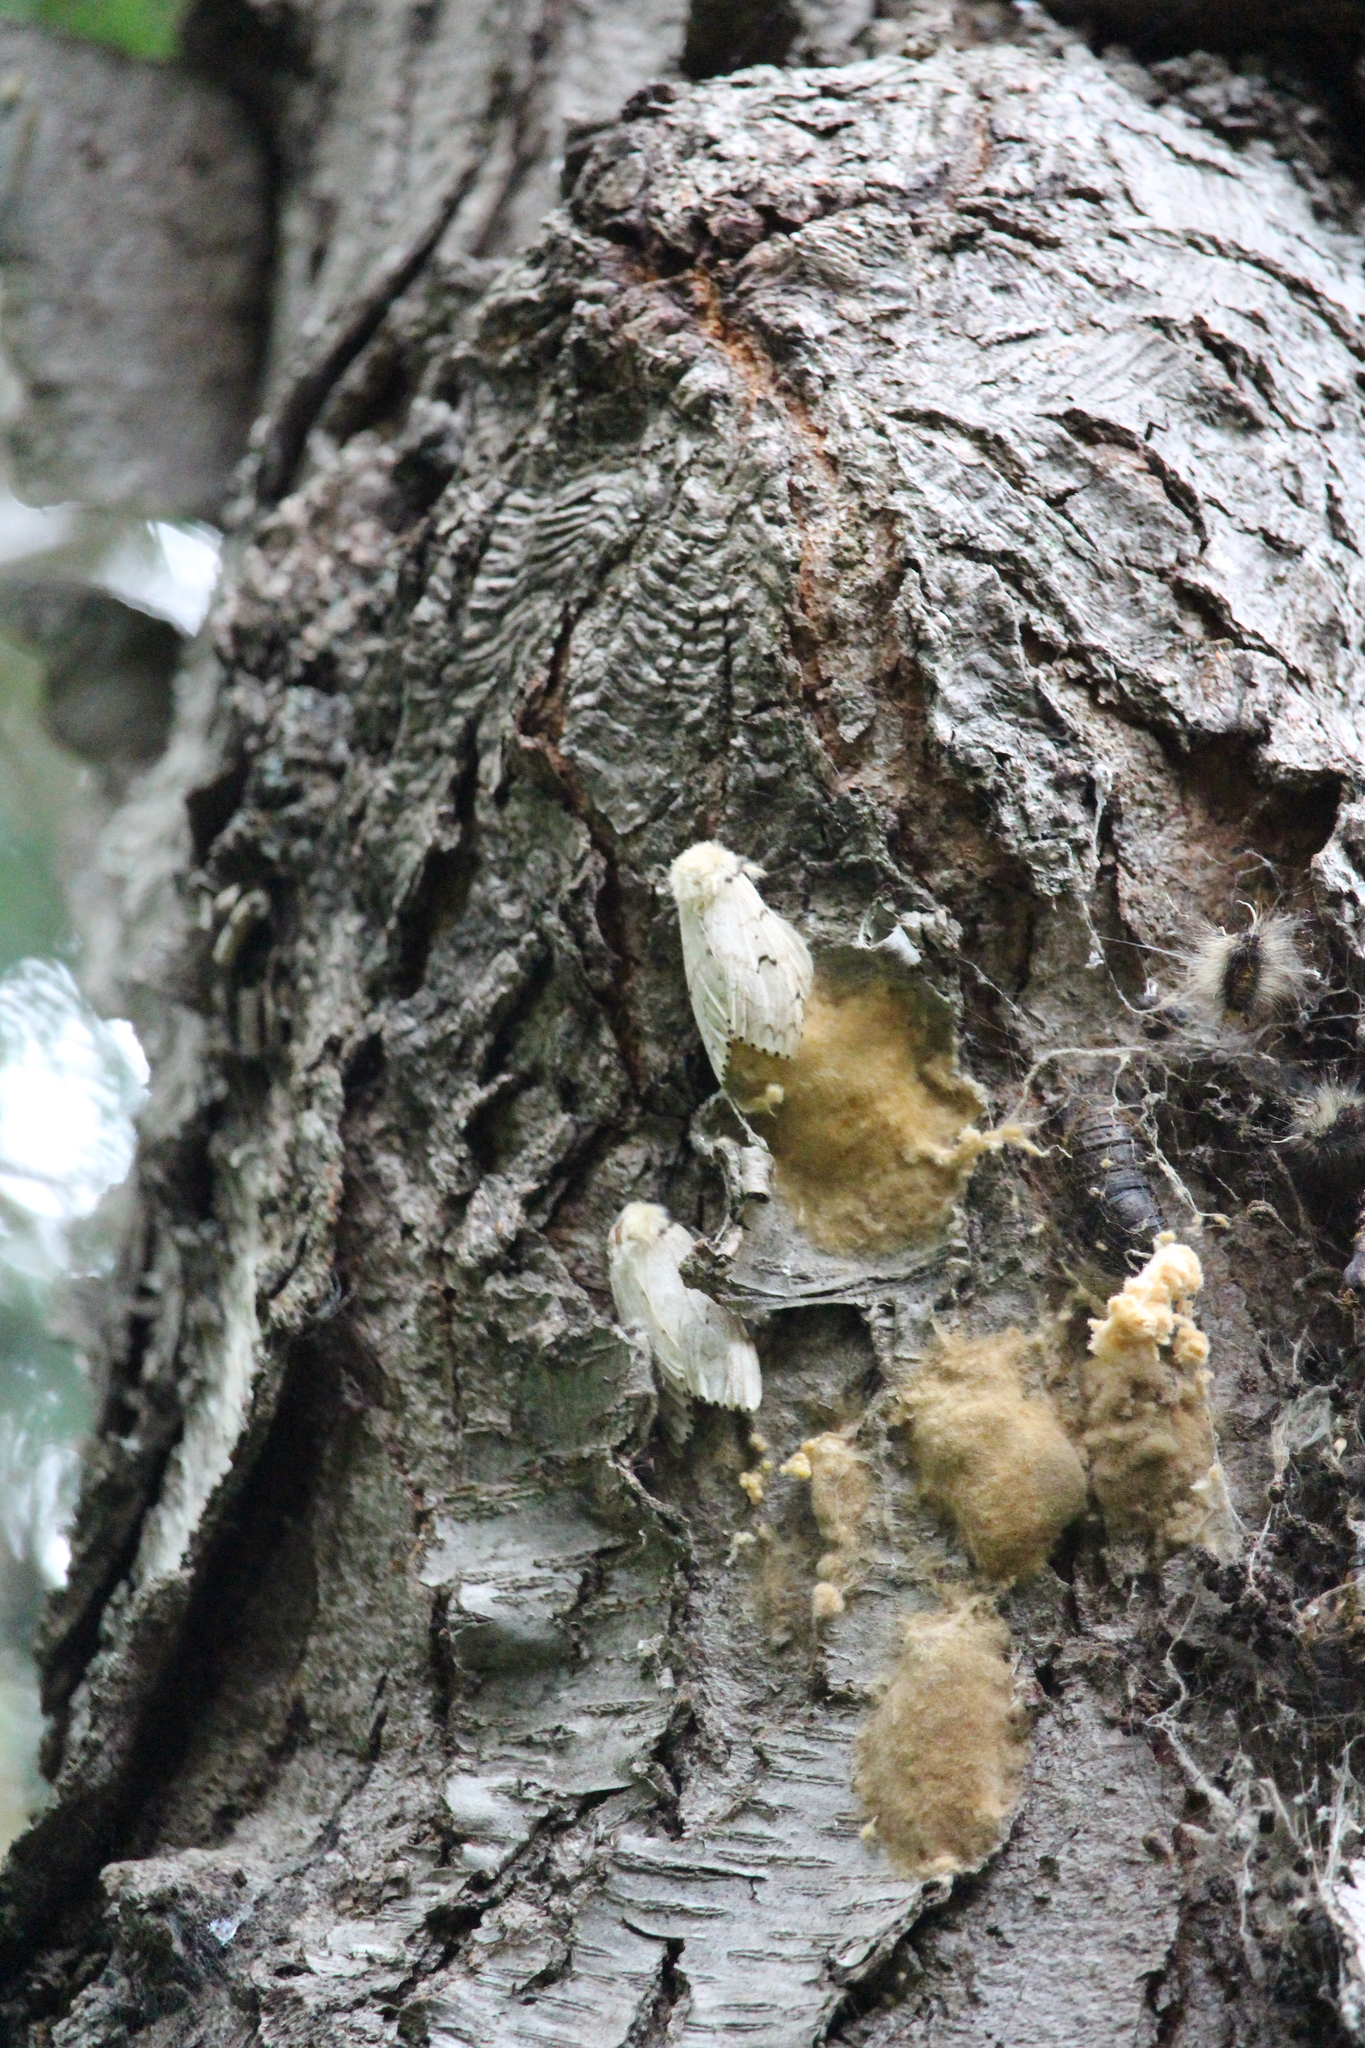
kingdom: Animalia
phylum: Arthropoda
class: Insecta
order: Lepidoptera
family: Erebidae
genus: Lymantria
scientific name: Lymantria dispar
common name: Gypsy moth
